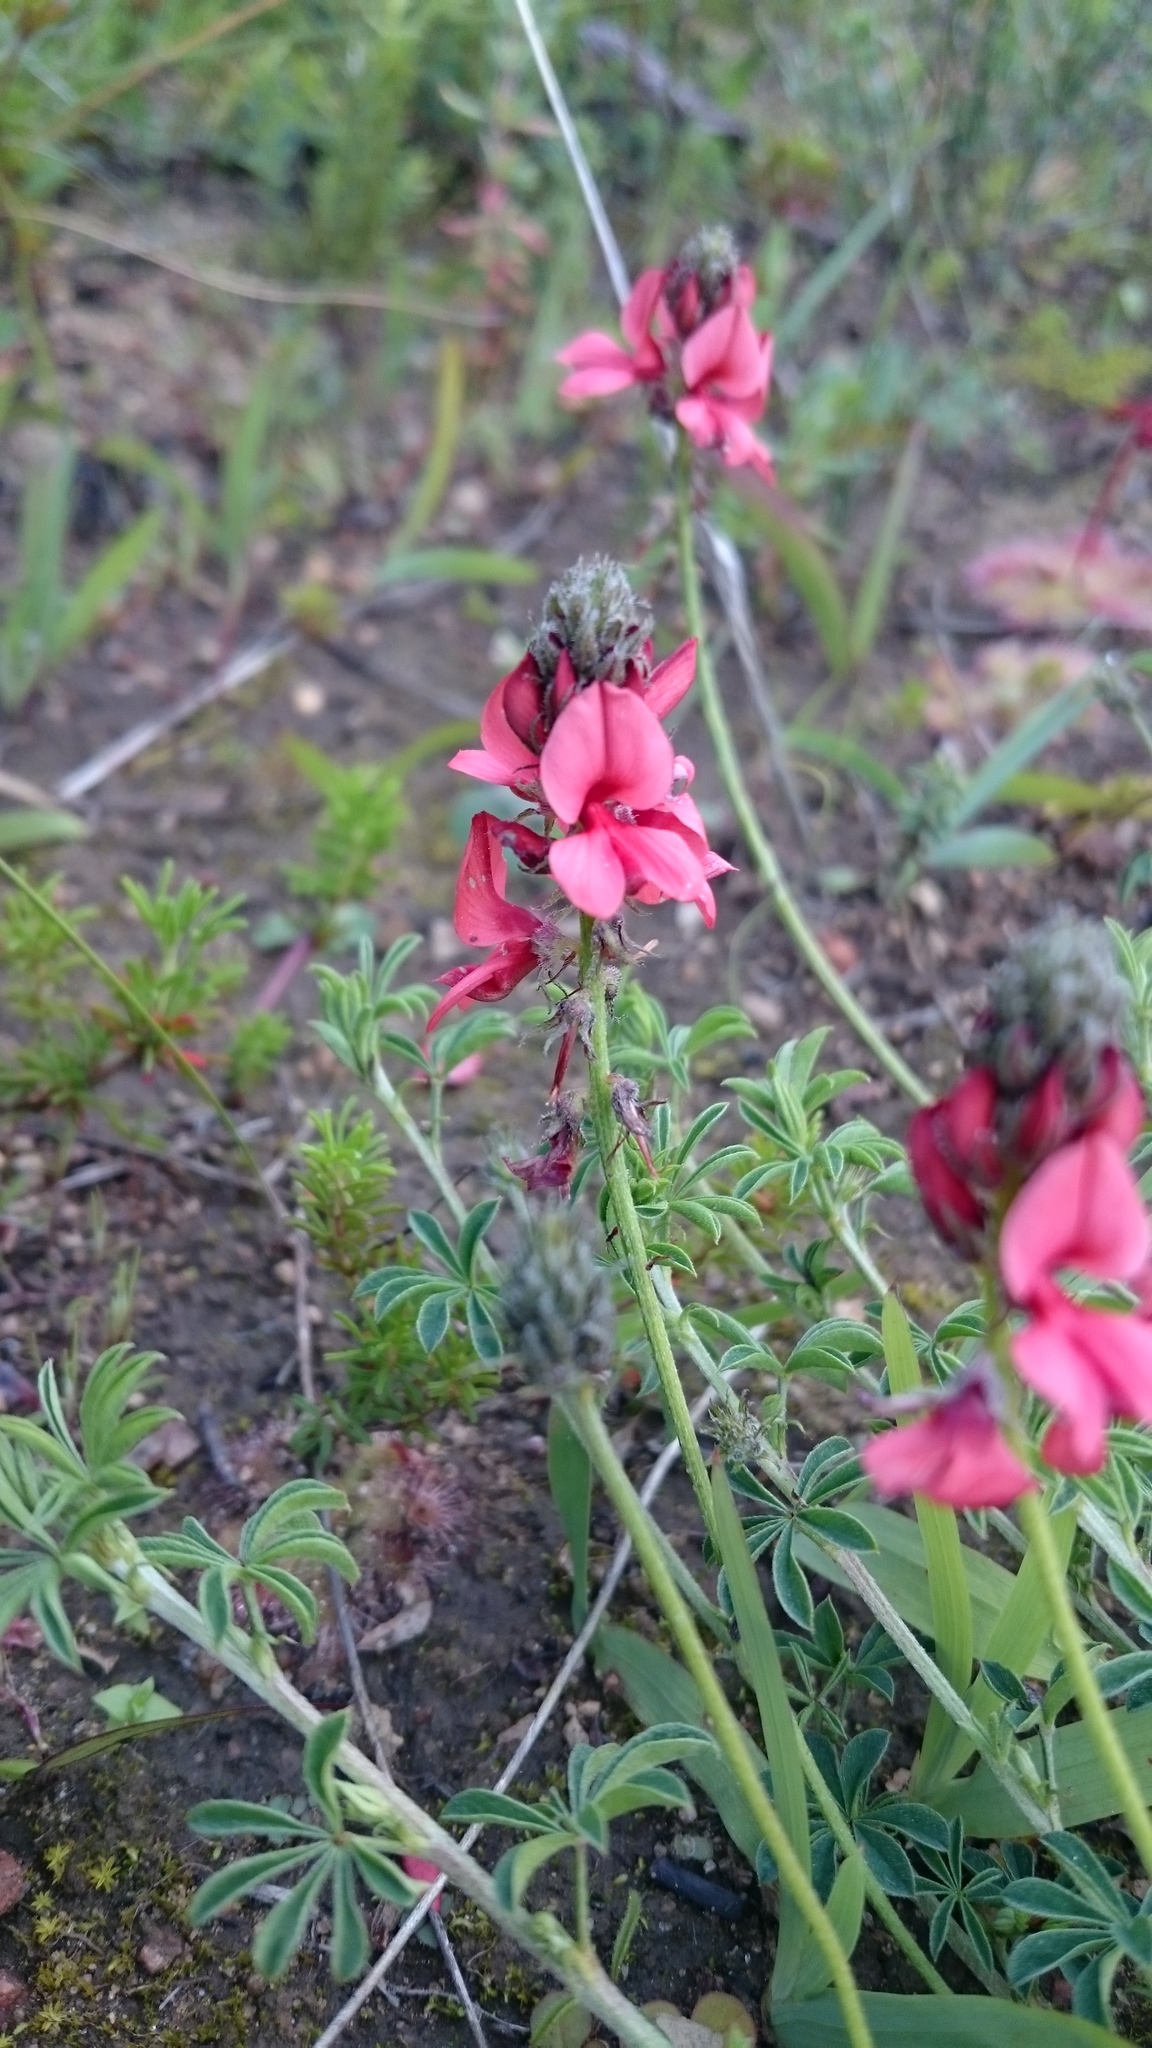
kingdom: Plantae
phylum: Tracheophyta
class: Magnoliopsida
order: Fabales
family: Fabaceae
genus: Indigofera
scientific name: Indigofera digitata
